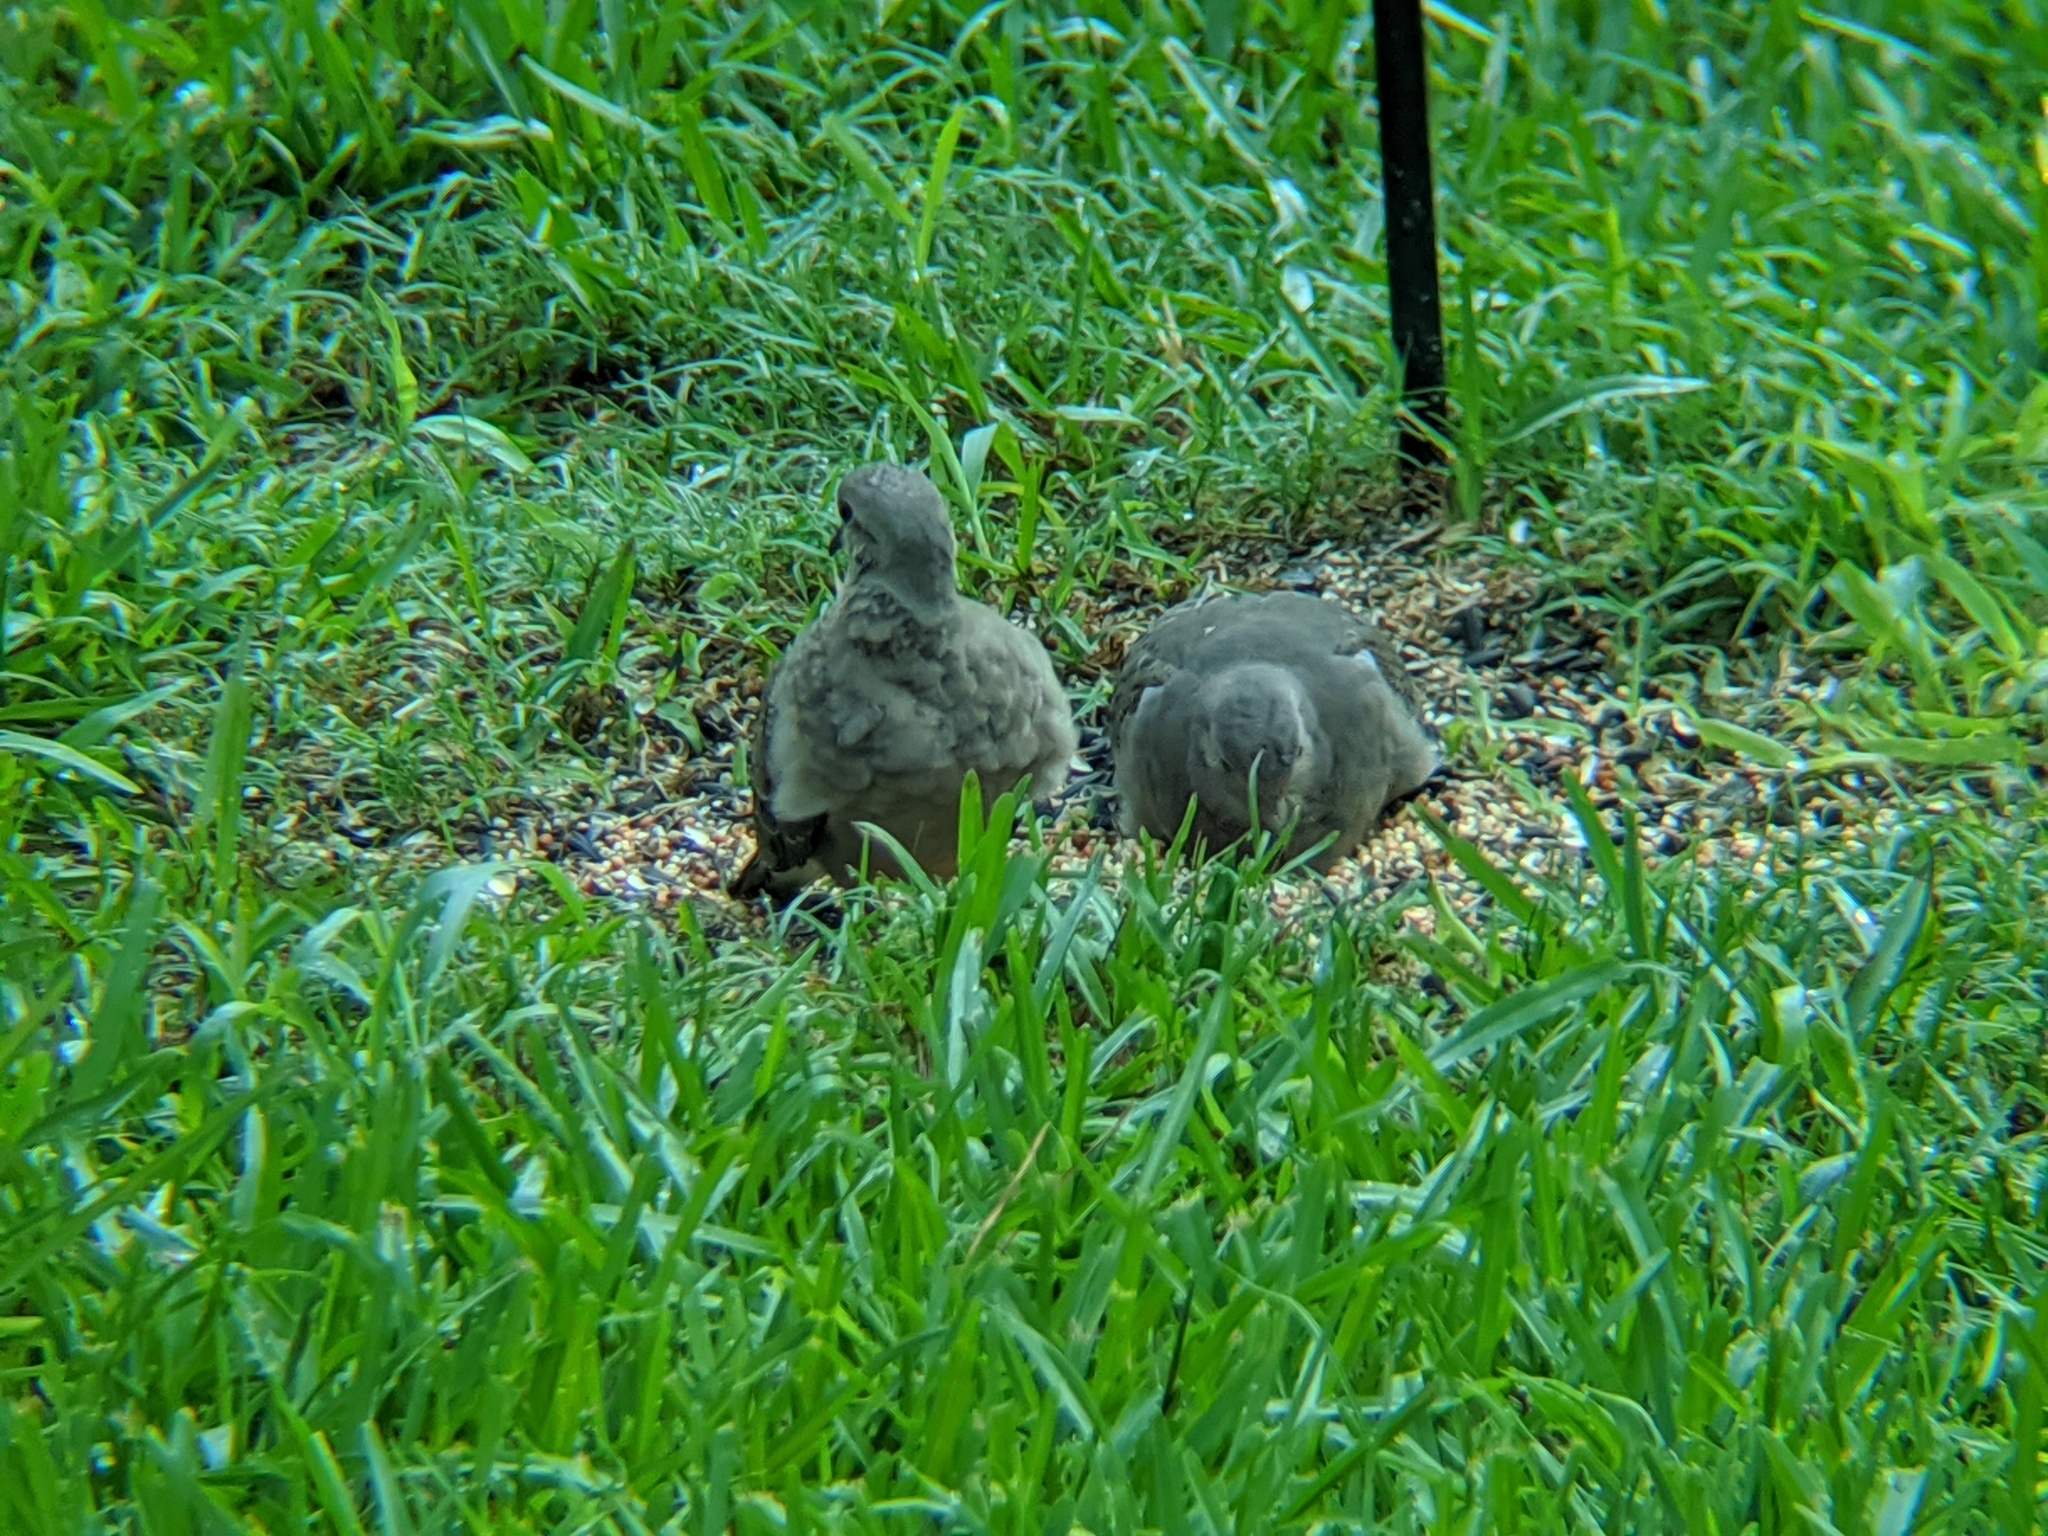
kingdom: Animalia
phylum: Chordata
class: Aves
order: Columbiformes
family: Columbidae
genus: Zenaida
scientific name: Zenaida macroura
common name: Mourning dove
